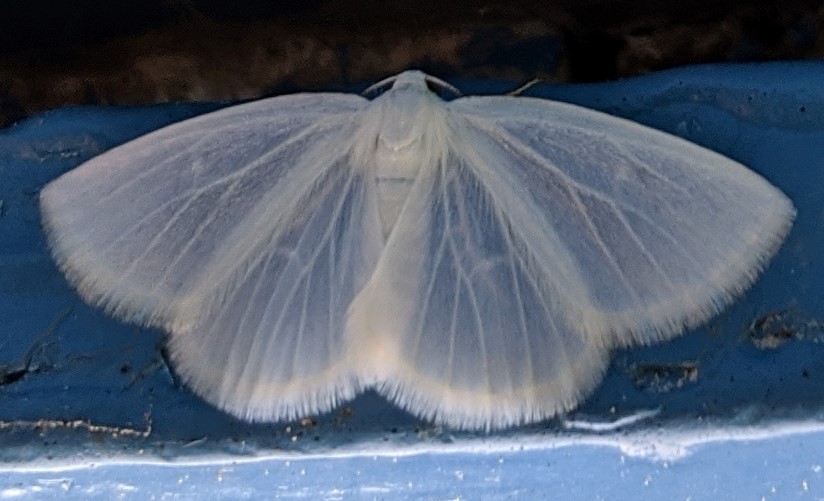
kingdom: Animalia
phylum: Arthropoda
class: Insecta
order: Lepidoptera
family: Geometridae
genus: Lomographa
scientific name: Lomographa vestaliata
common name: White spring moth
